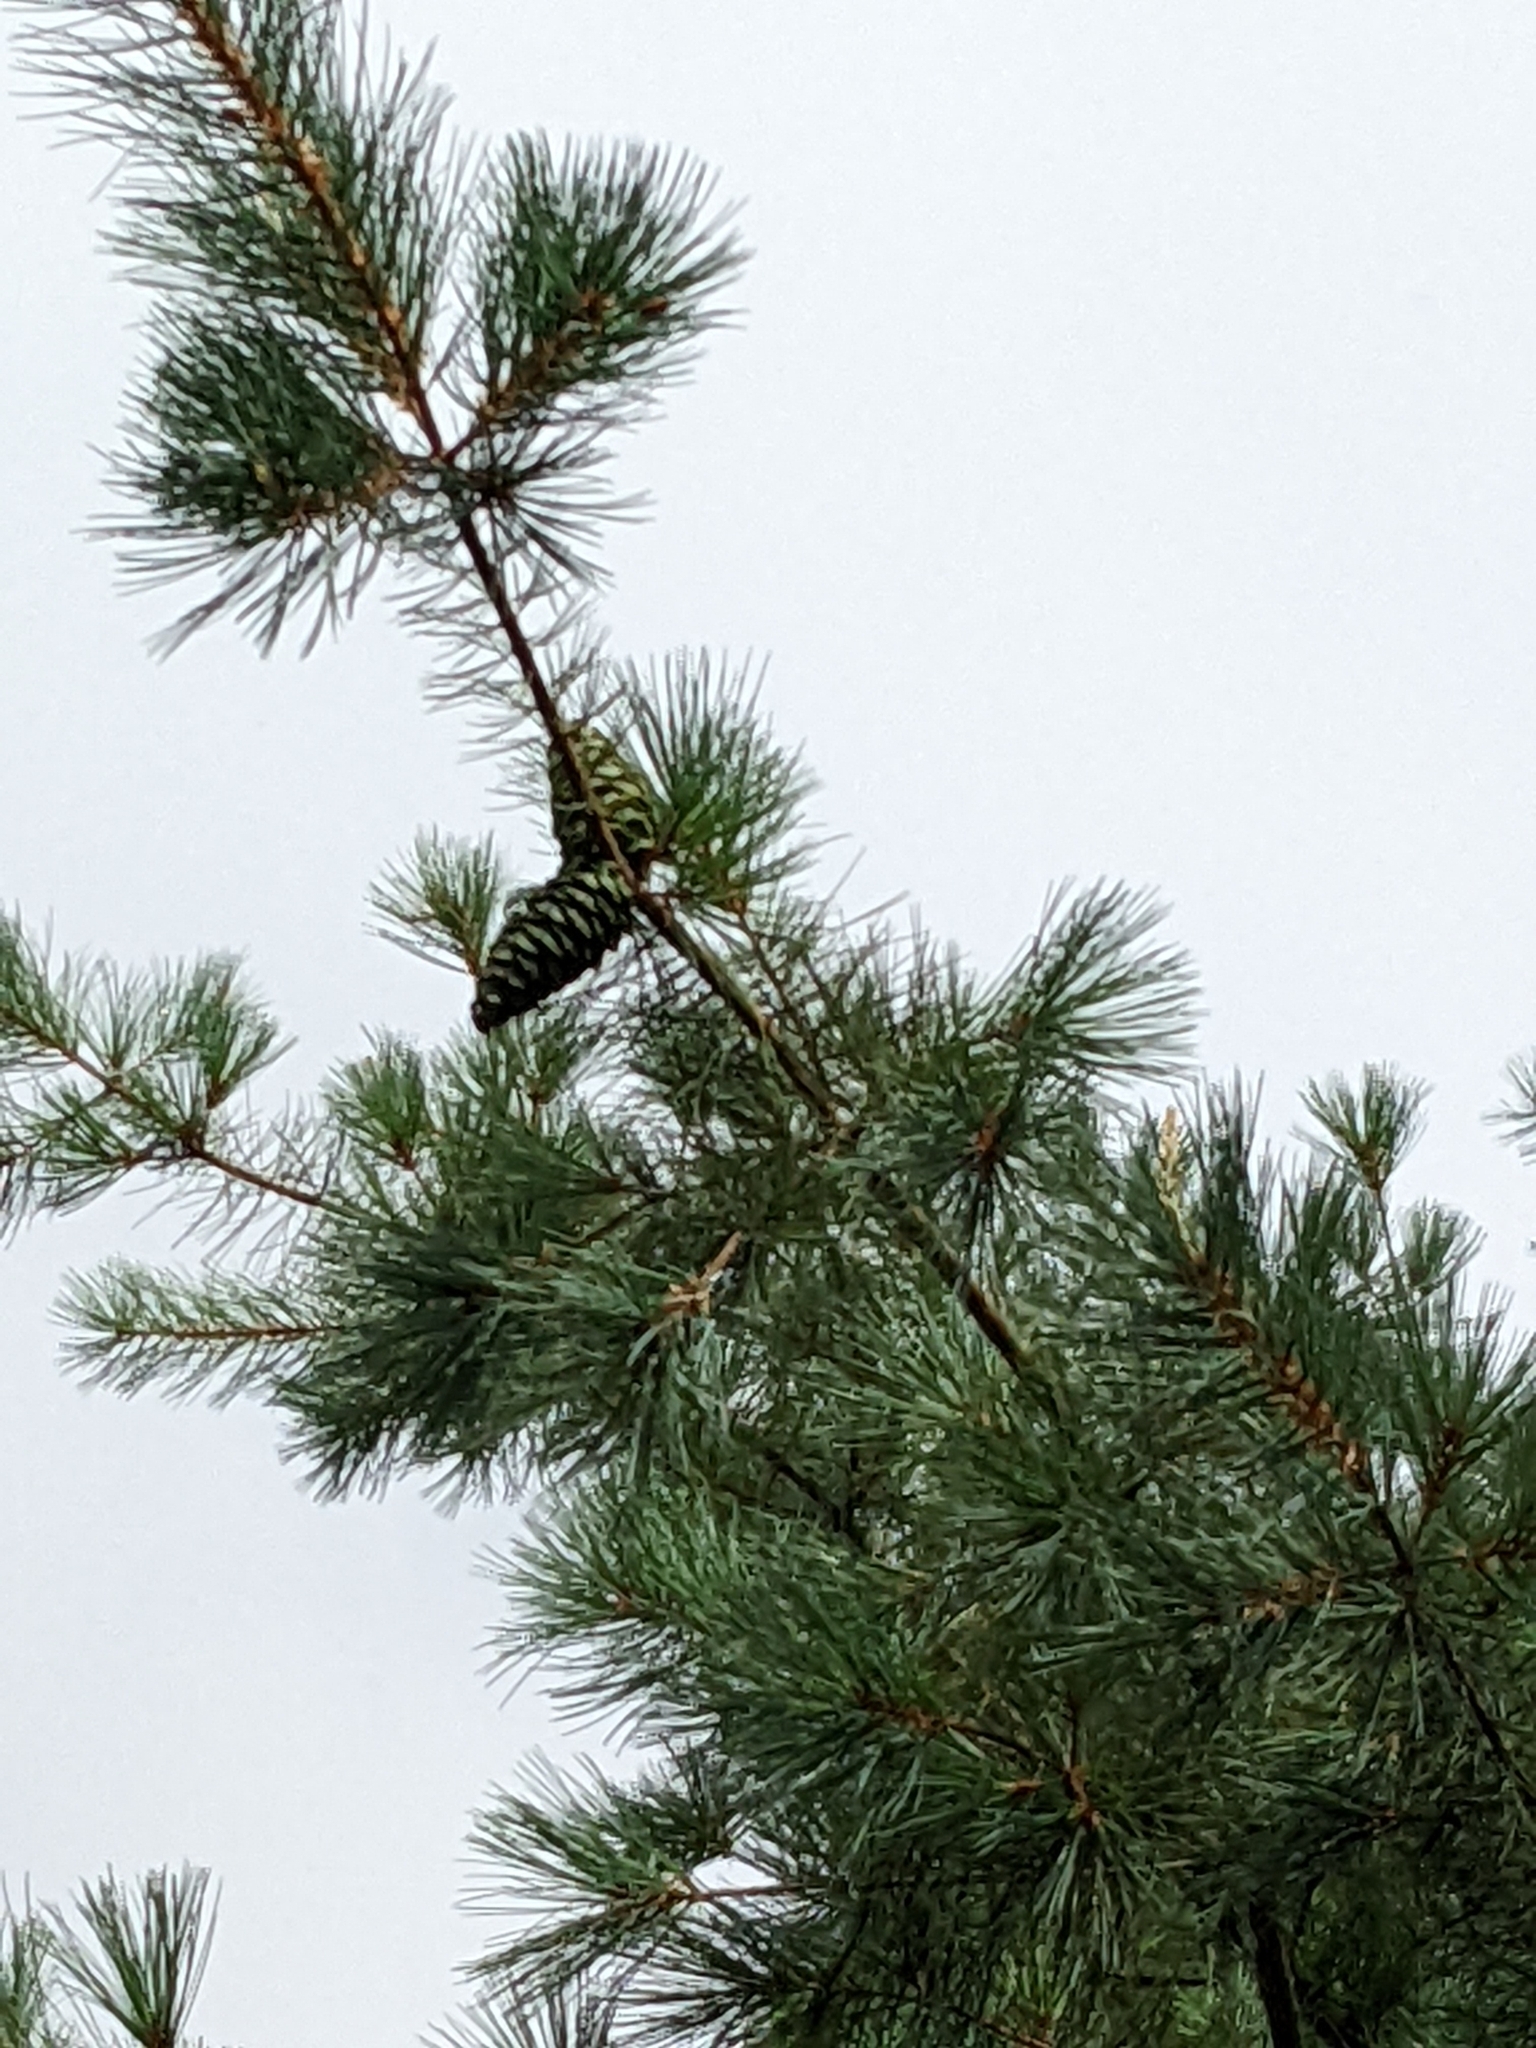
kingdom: Plantae
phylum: Tracheophyta
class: Pinopsida
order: Pinales
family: Pinaceae
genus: Pinus
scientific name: Pinus morrisonicola
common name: Taiwan white pine
